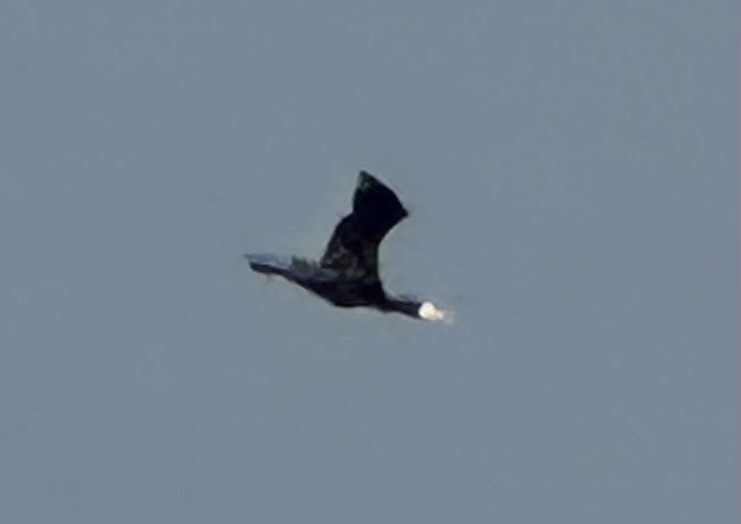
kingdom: Animalia
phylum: Chordata
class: Aves
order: Suliformes
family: Phalacrocoracidae
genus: Phalacrocorax
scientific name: Phalacrocorax carbo
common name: Great cormorant
